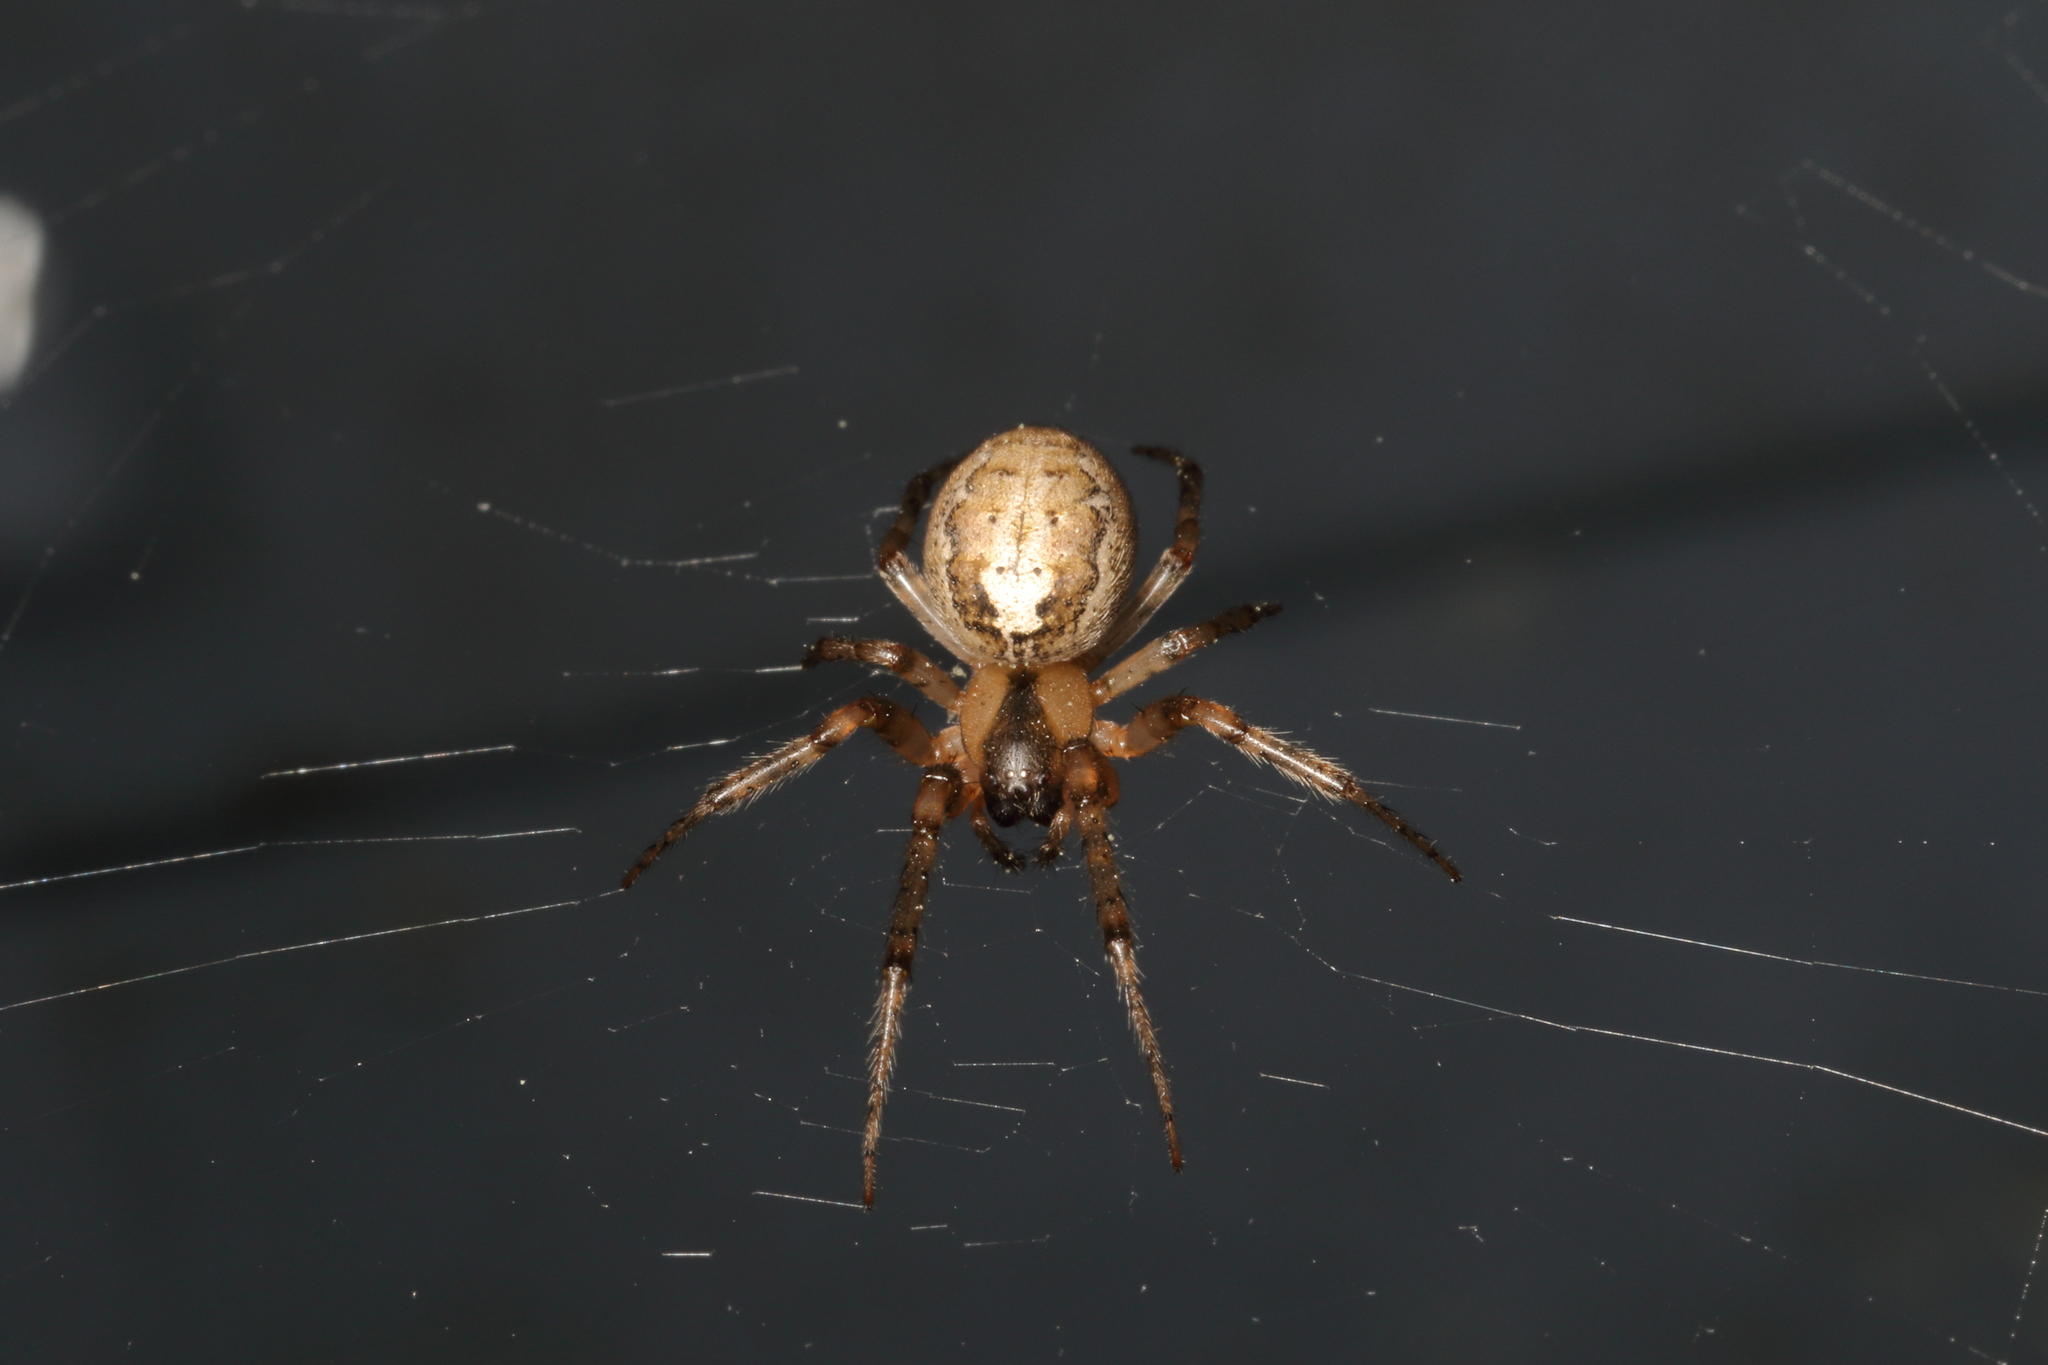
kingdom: Animalia
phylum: Arthropoda
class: Arachnida
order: Araneae
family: Araneidae
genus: Zygiella
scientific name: Zygiella x-notata
